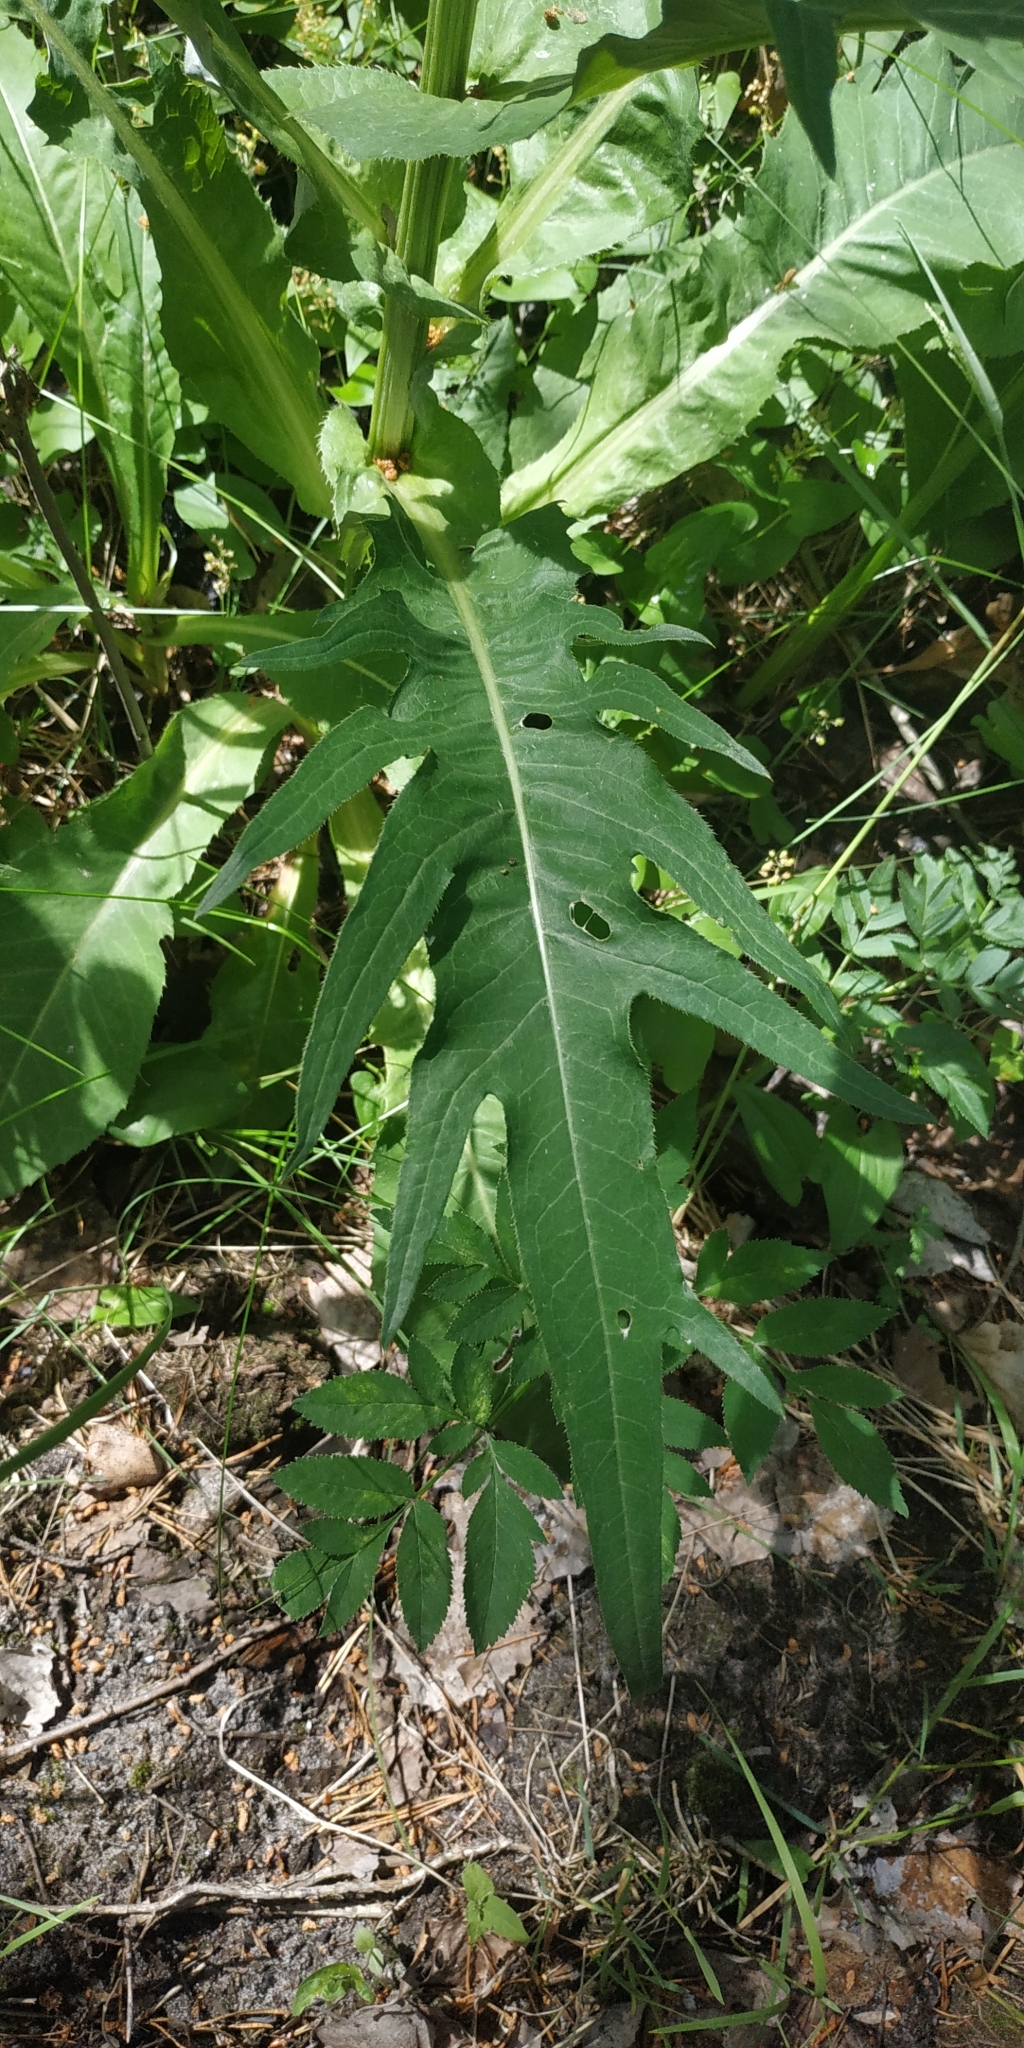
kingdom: Plantae
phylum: Tracheophyta
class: Magnoliopsida
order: Asterales
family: Asteraceae
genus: Cirsium
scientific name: Cirsium heterophyllum
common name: Melancholy thistle
